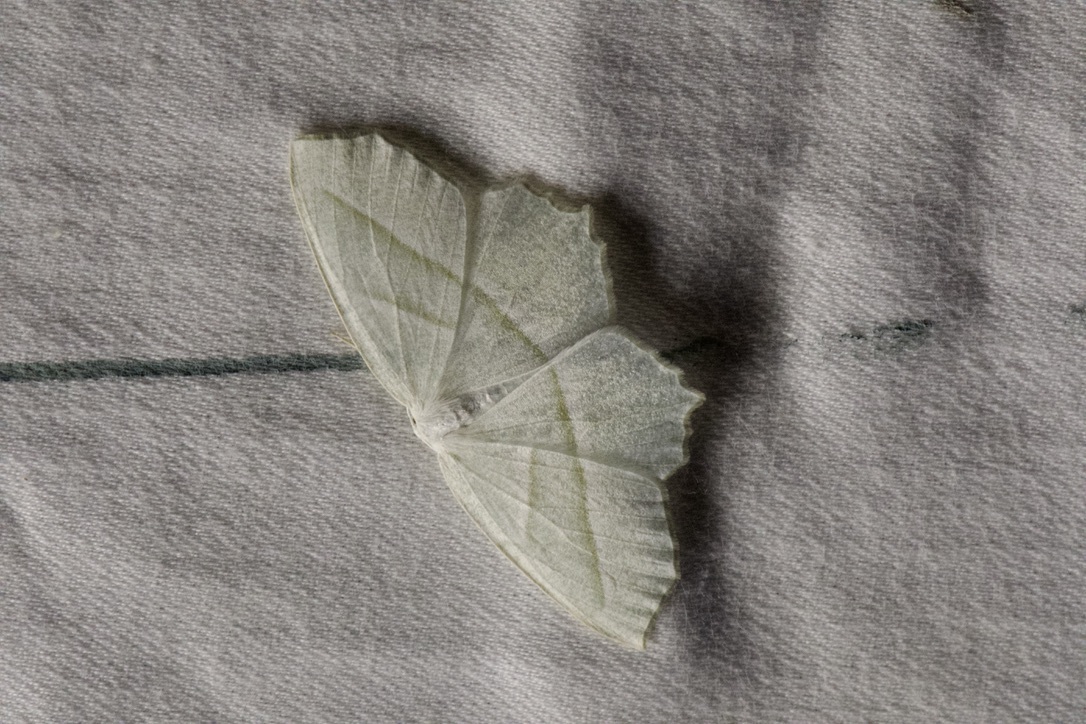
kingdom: Animalia
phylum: Arthropoda
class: Insecta
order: Lepidoptera
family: Geometridae
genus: Campaea
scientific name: Campaea perlata
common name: Fringed looper
